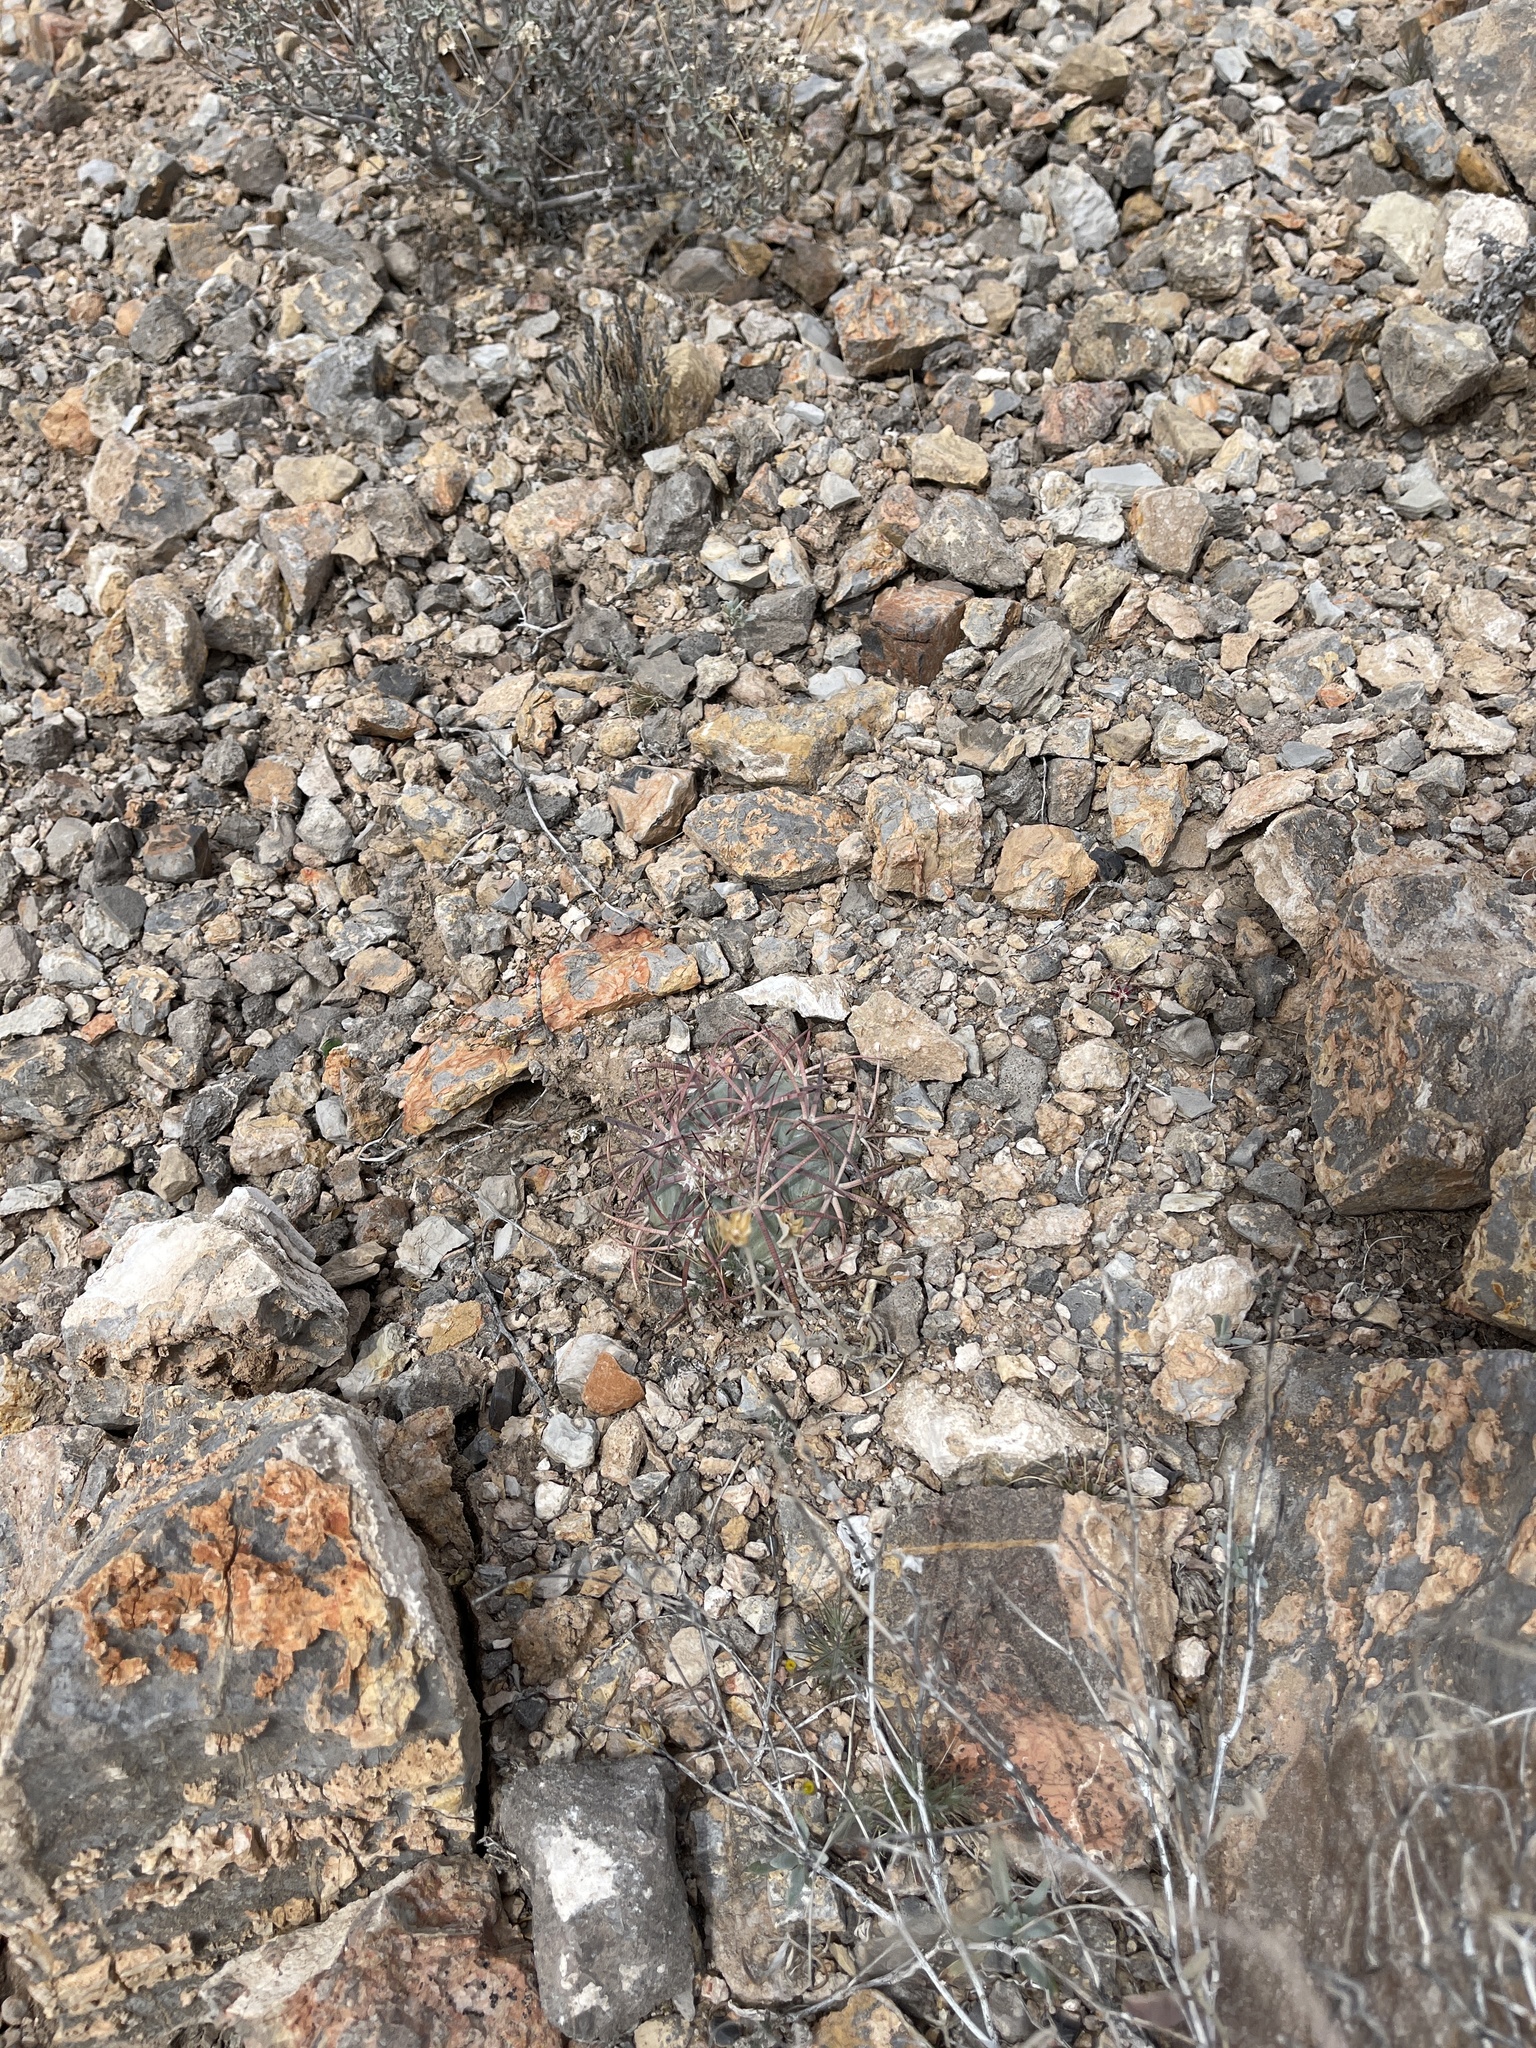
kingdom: Plantae
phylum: Tracheophyta
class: Magnoliopsida
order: Caryophyllales
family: Cactaceae
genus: Echinocactus
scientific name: Echinocactus horizonthalonius
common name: Devilshead
